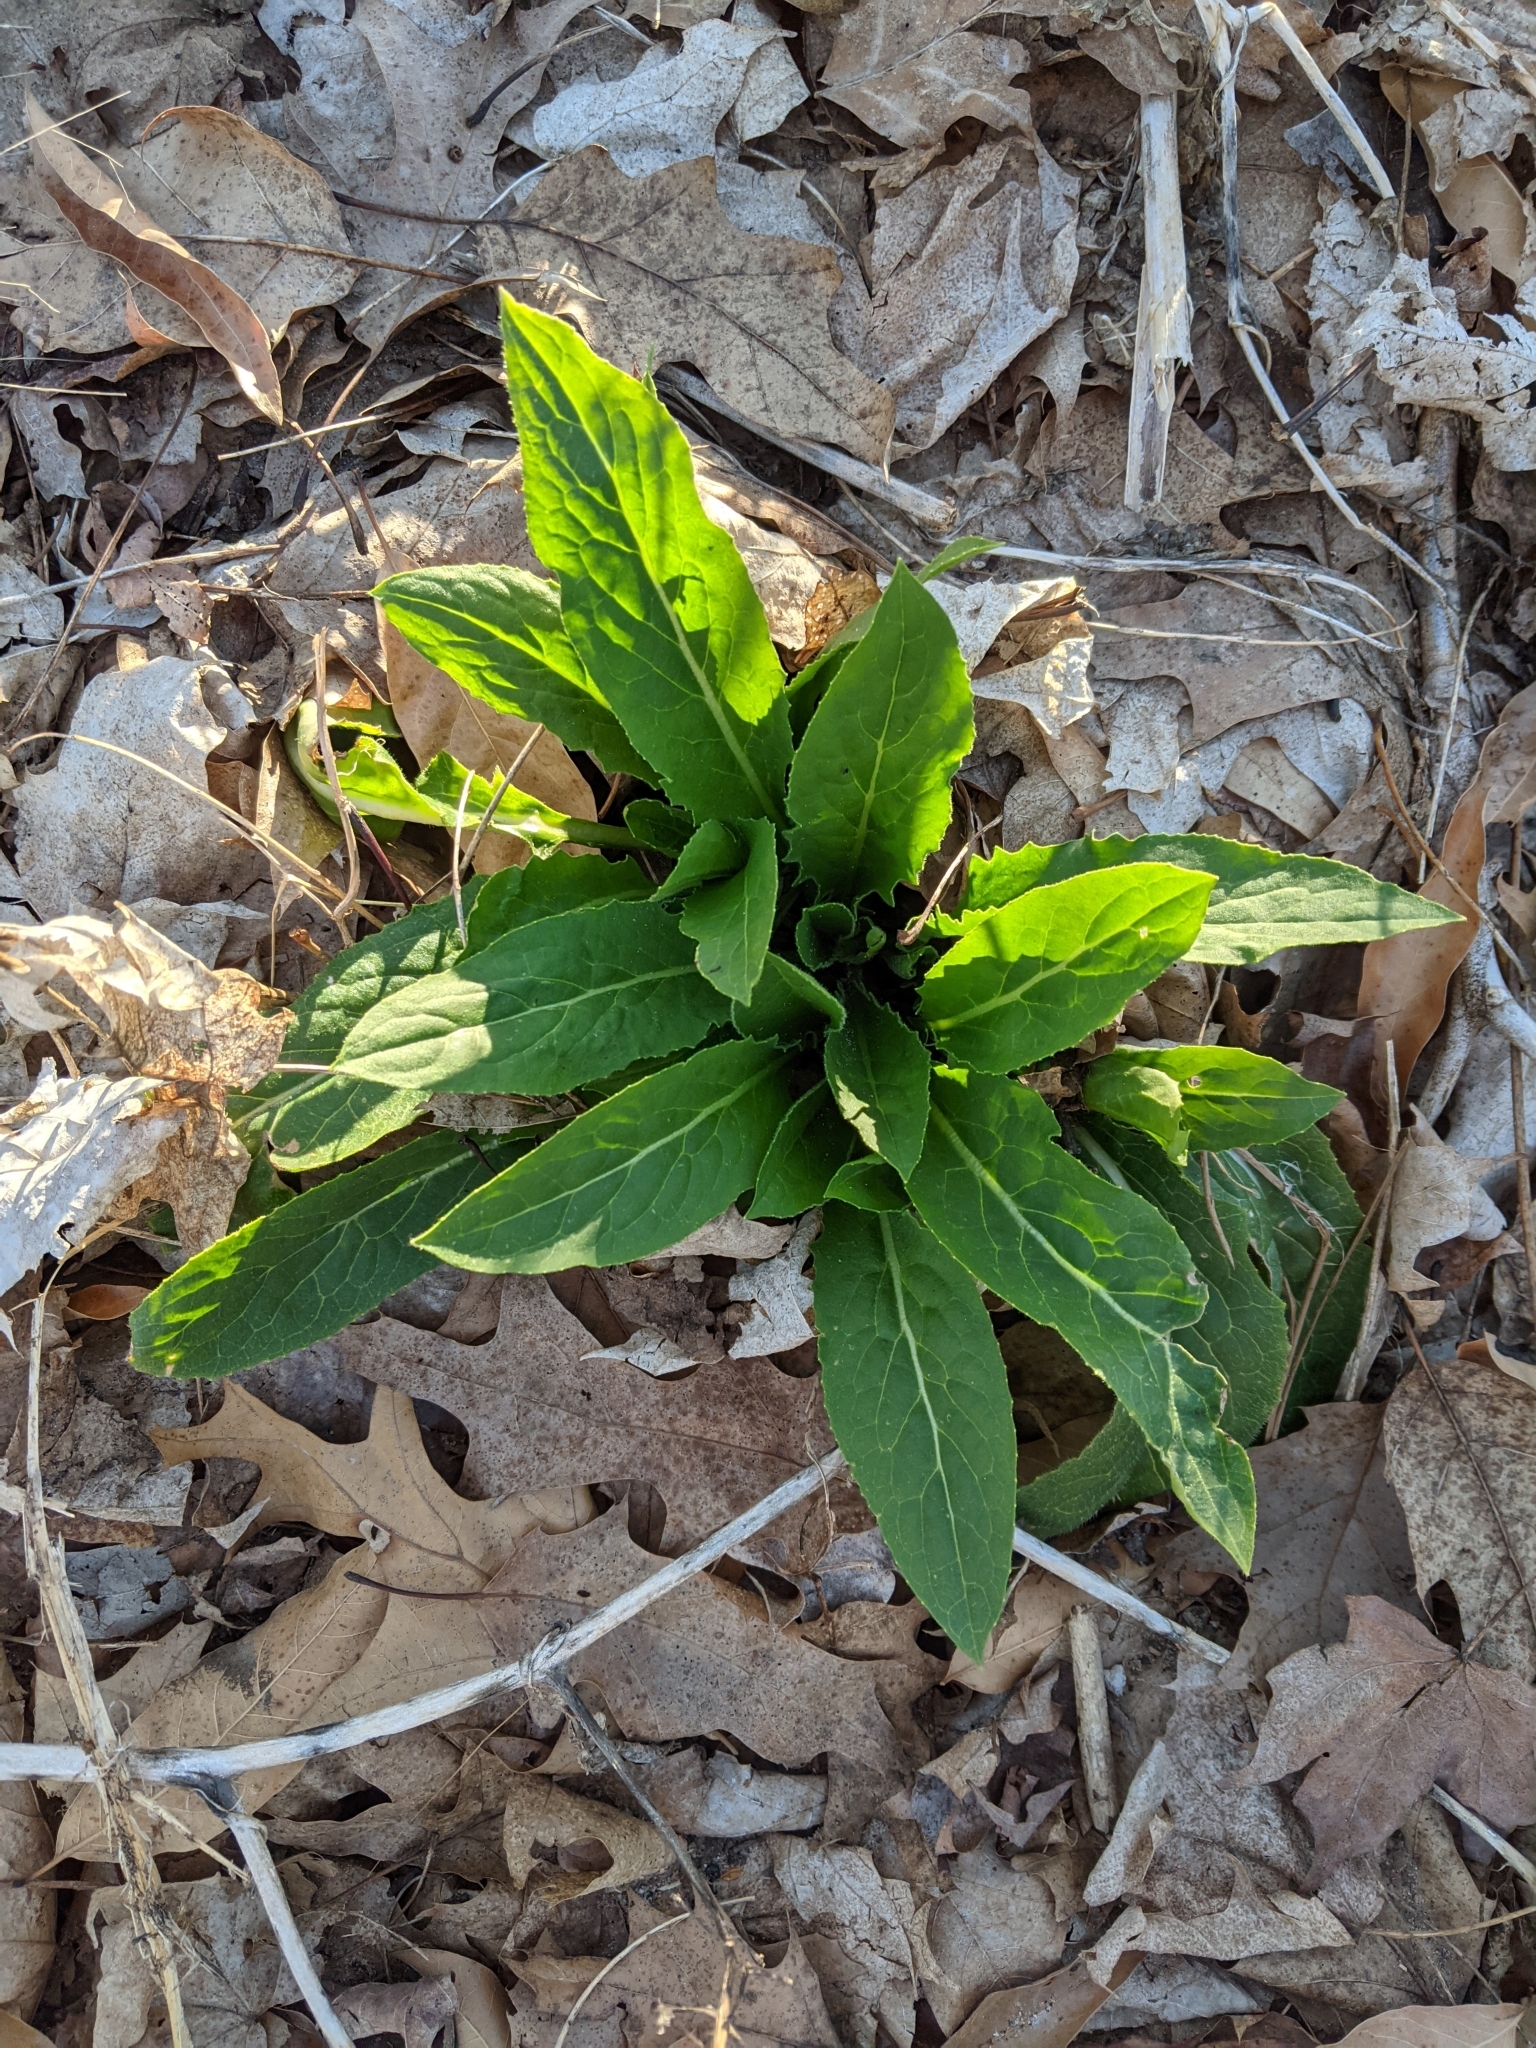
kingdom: Plantae
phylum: Tracheophyta
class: Magnoliopsida
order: Brassicales
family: Brassicaceae
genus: Hesperis
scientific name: Hesperis matronalis
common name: Dame's-violet
